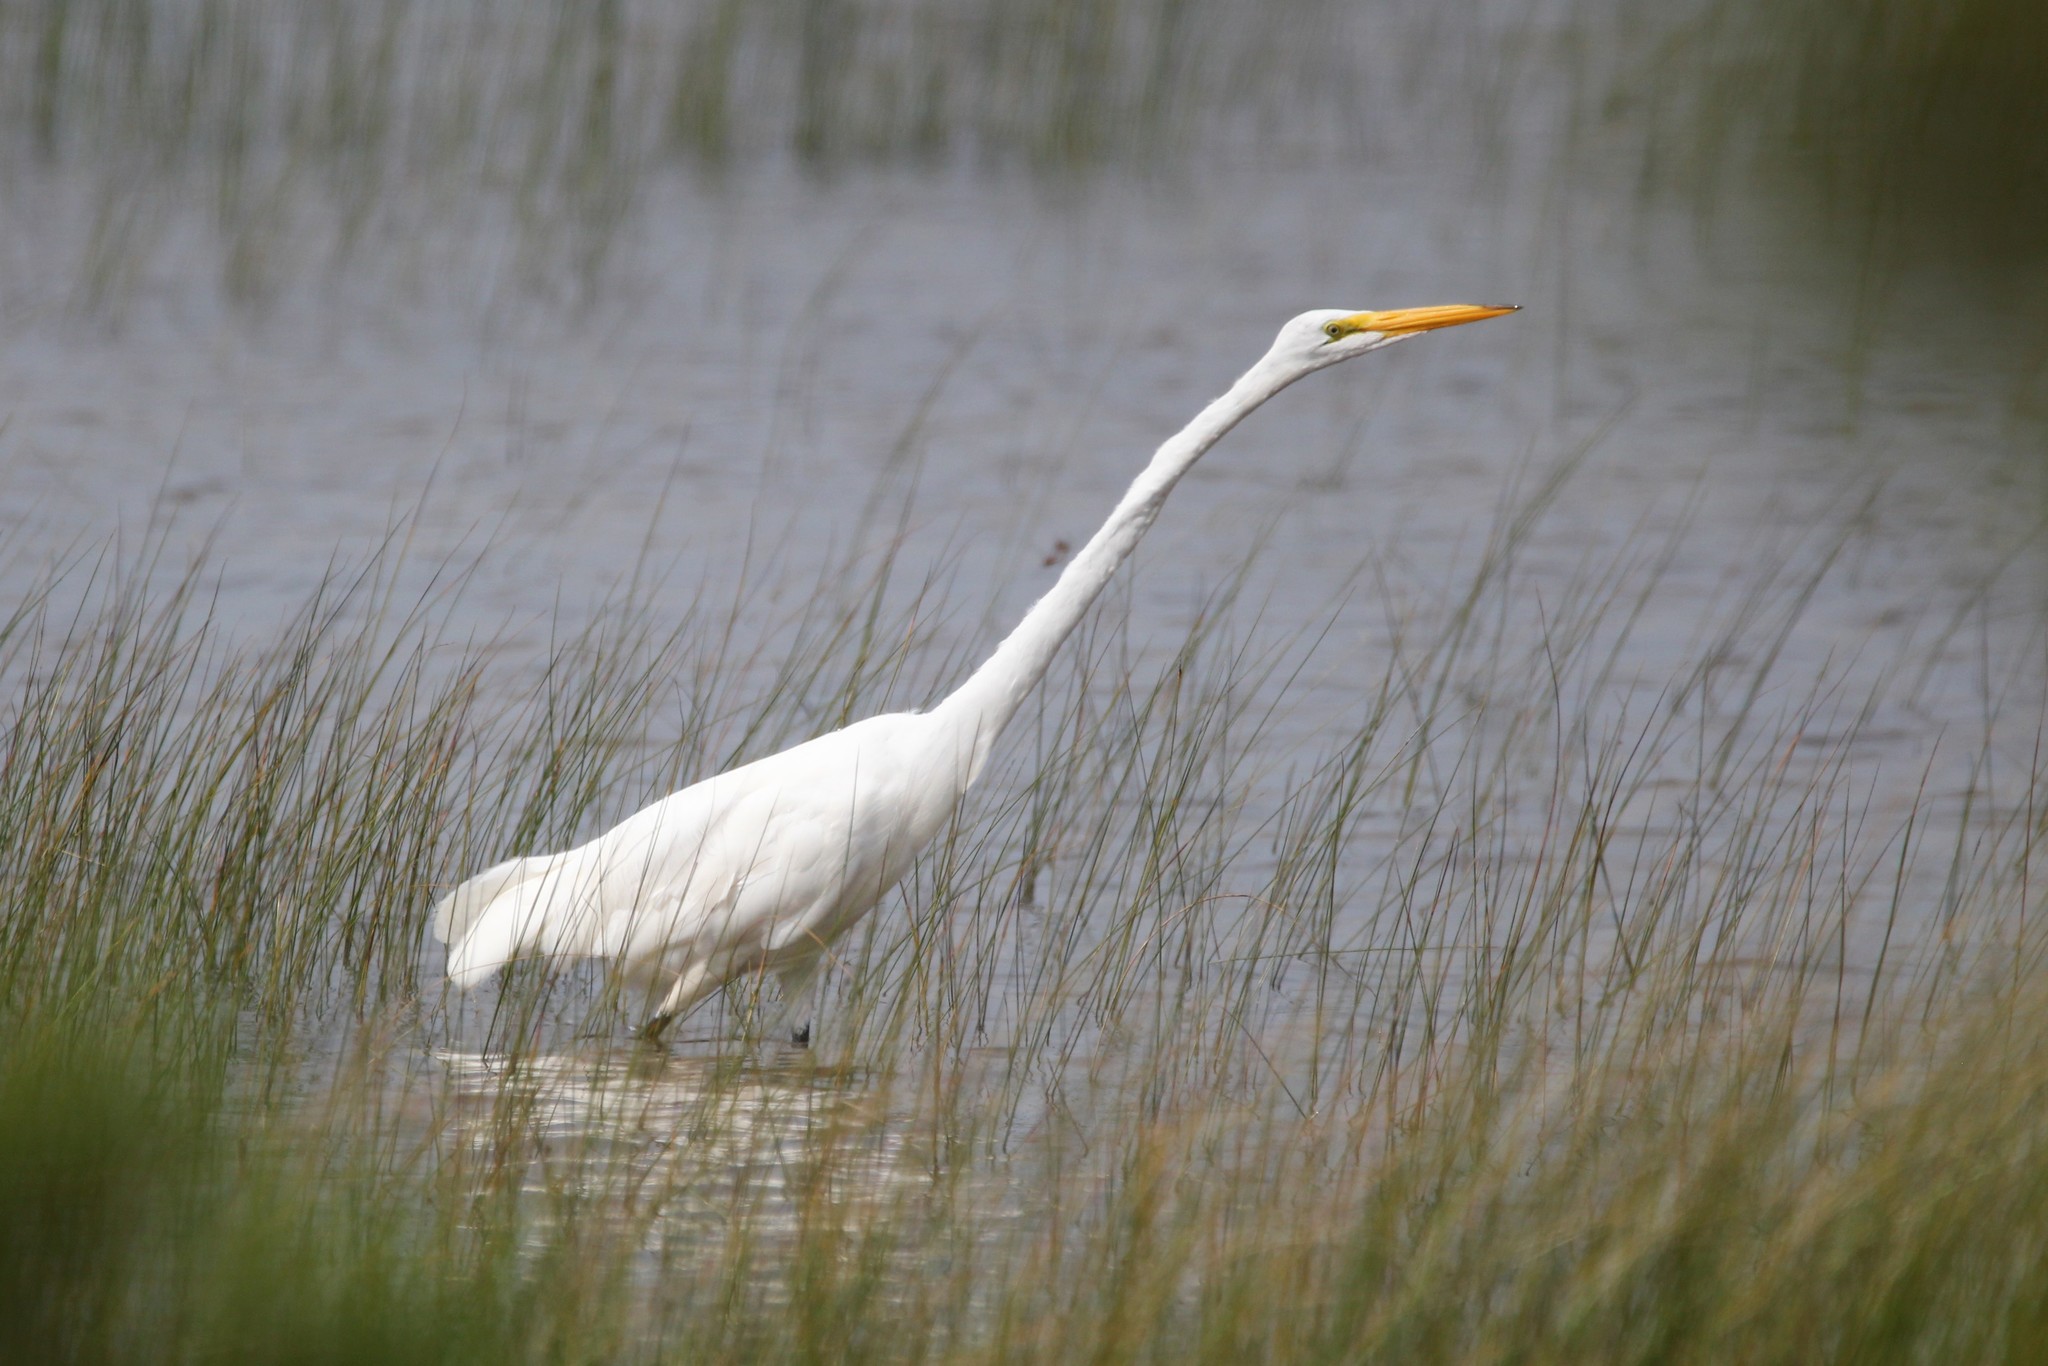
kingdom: Animalia
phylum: Chordata
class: Aves
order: Pelecaniformes
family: Ardeidae
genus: Ardea
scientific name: Ardea alba
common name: Great egret
